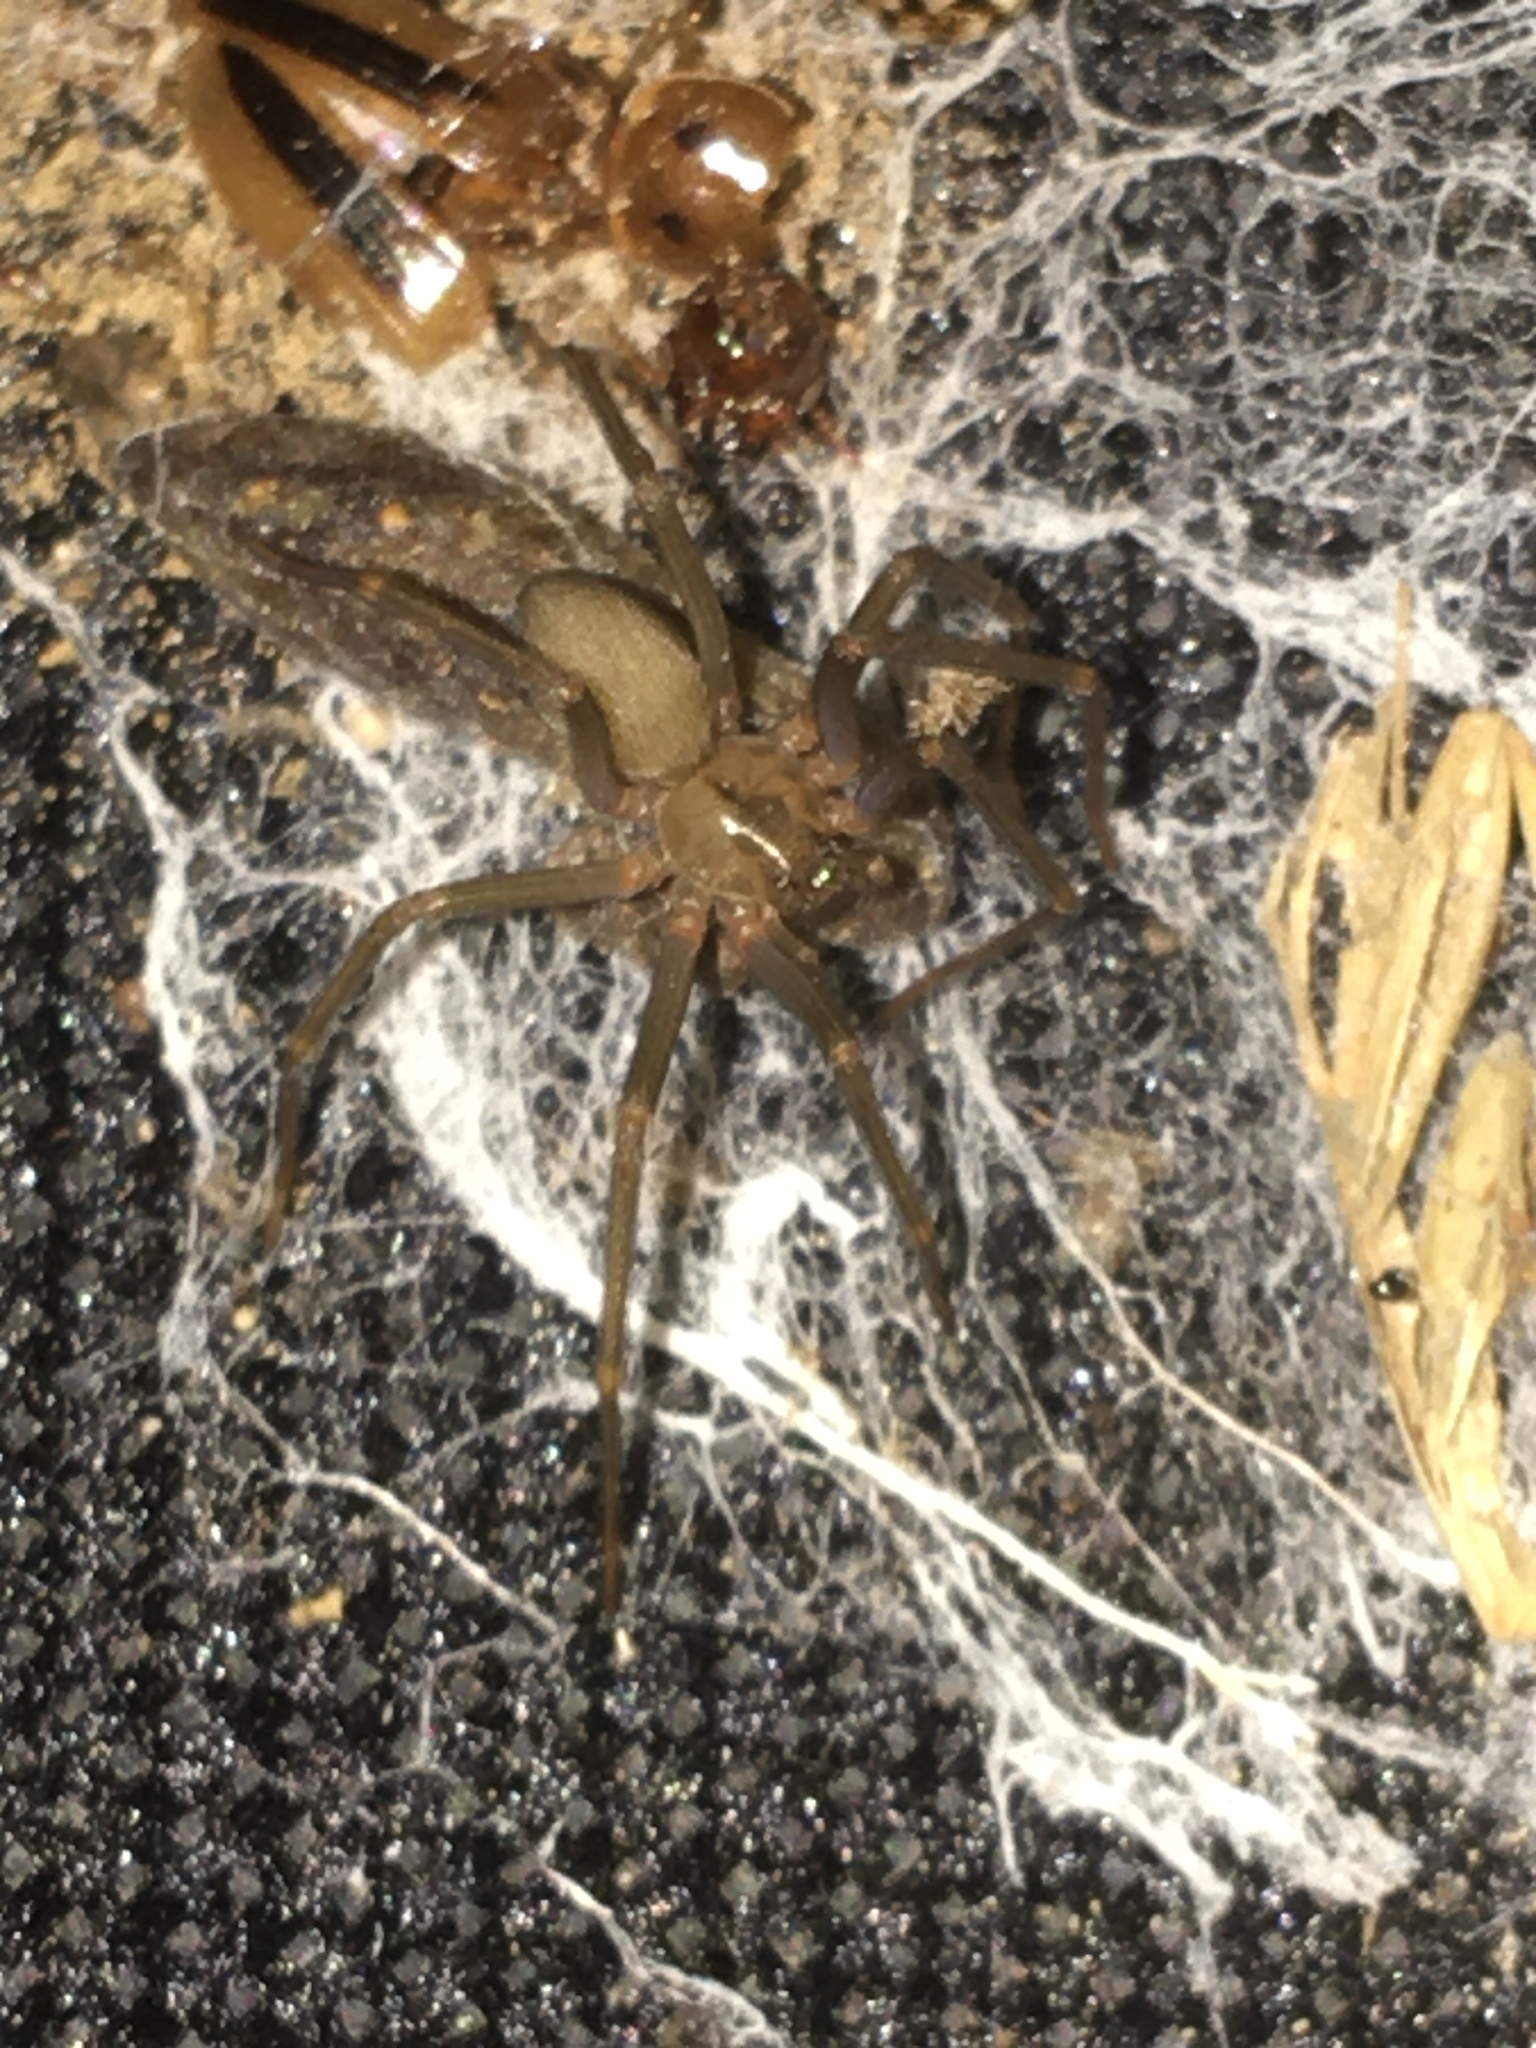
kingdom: Animalia
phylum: Arthropoda
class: Arachnida
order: Araneae
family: Sicariidae
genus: Loxosceles
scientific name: Loxosceles reclusa
